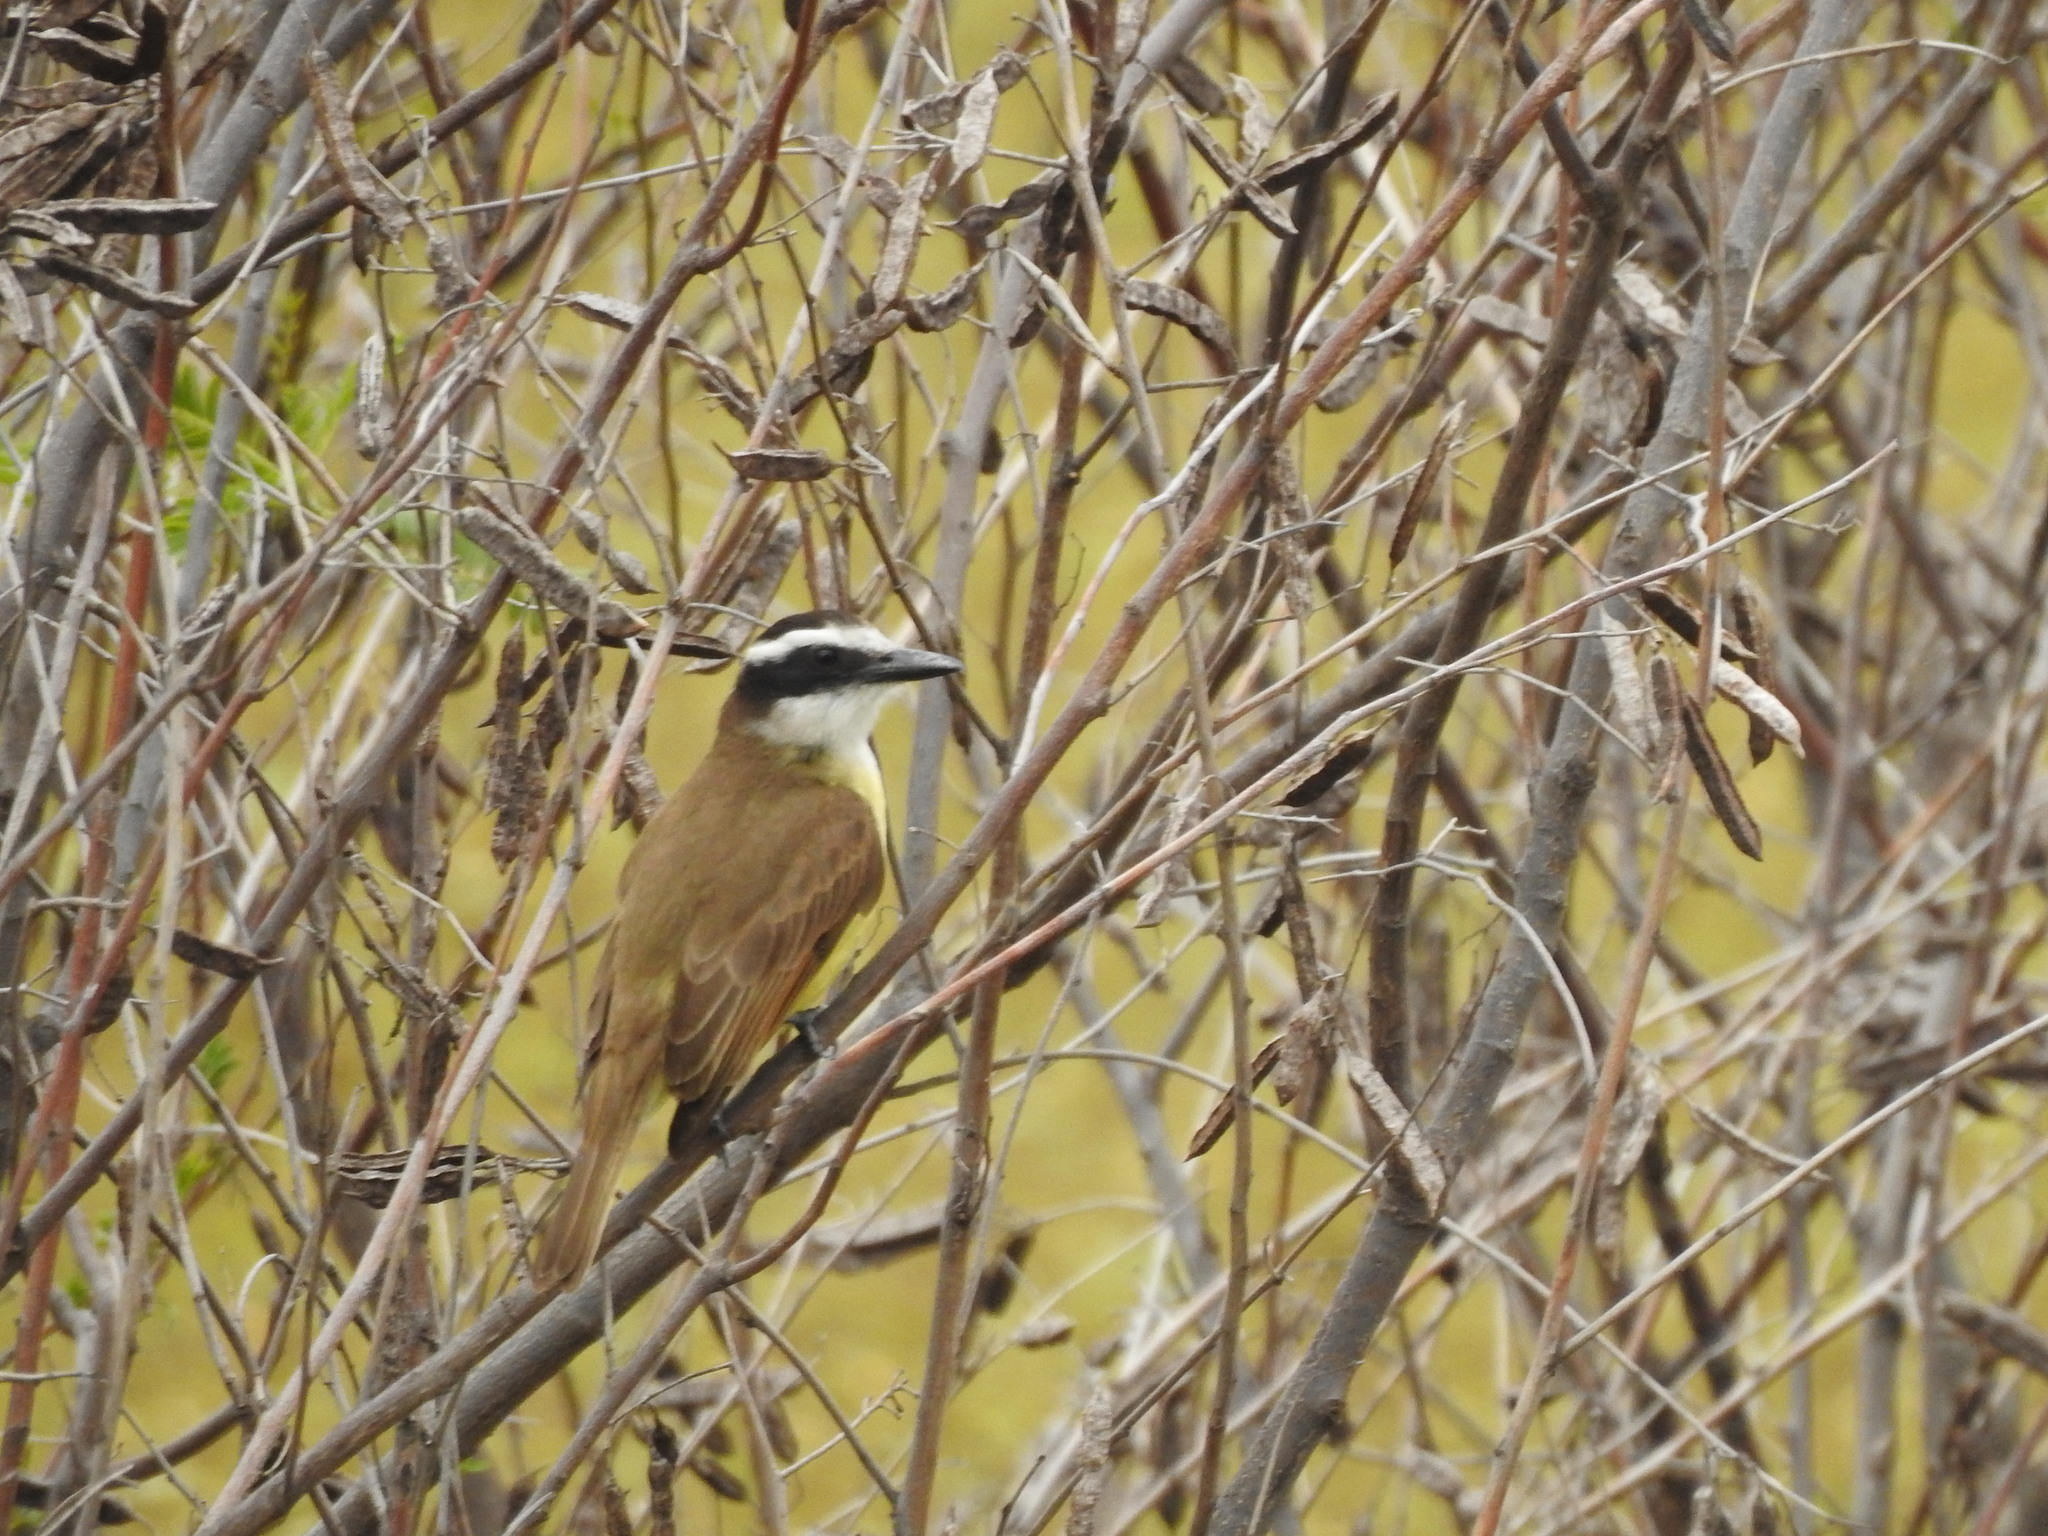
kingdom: Animalia
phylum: Chordata
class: Aves
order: Passeriformes
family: Tyrannidae
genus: Pitangus
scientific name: Pitangus sulphuratus
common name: Great kiskadee
